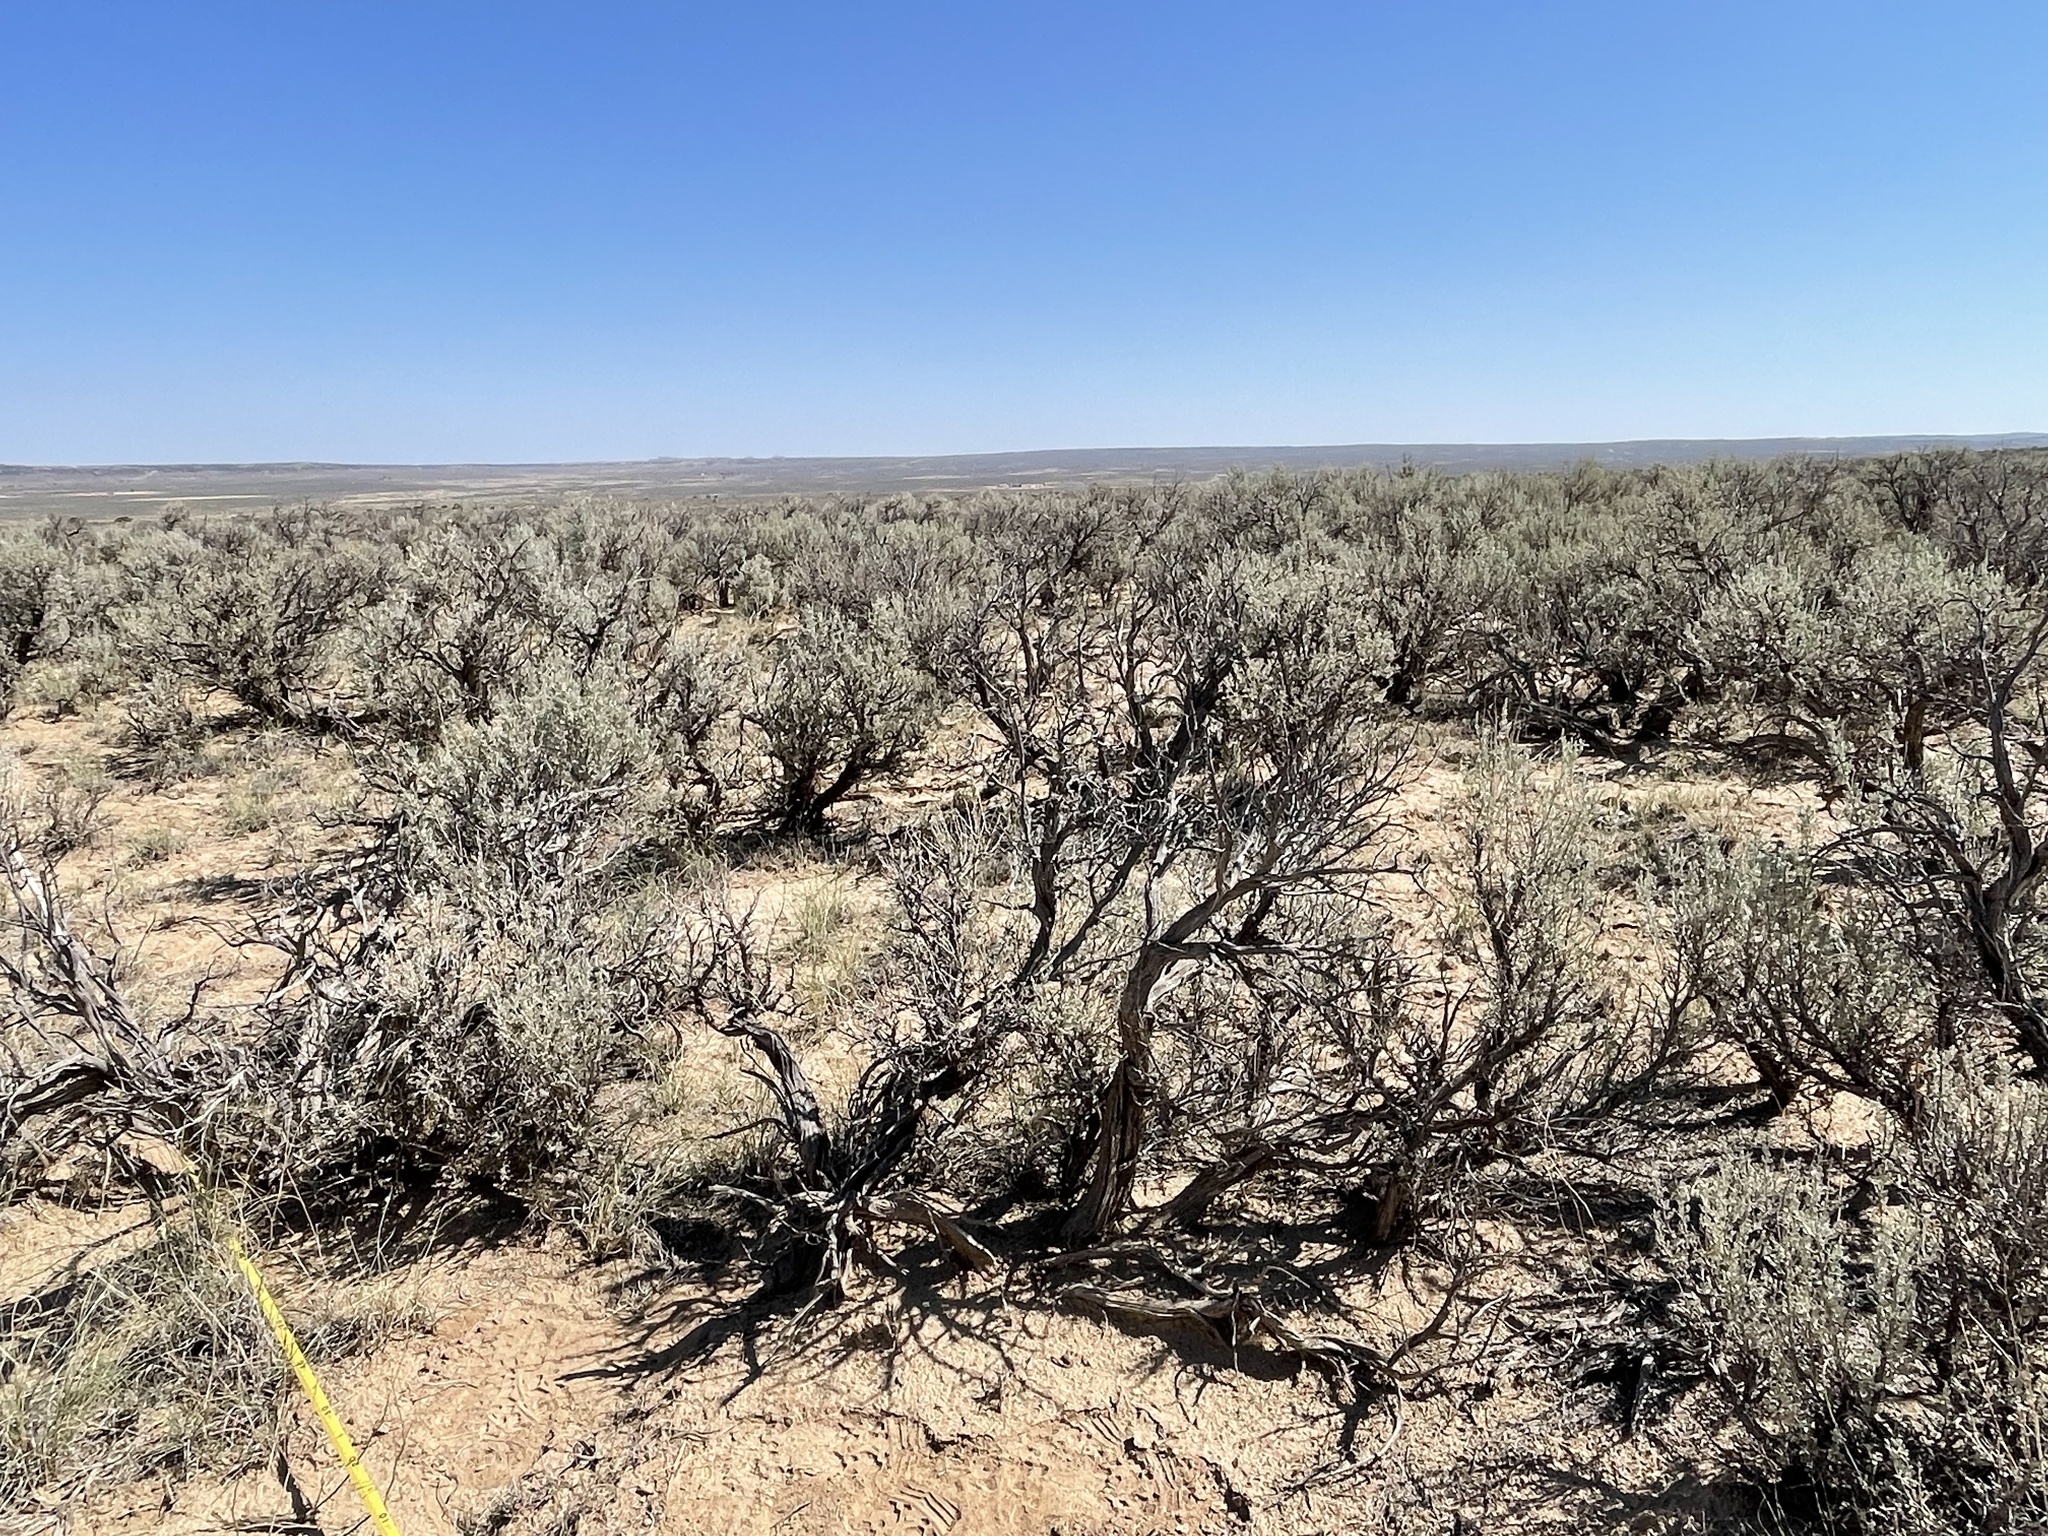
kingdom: Plantae
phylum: Tracheophyta
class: Magnoliopsida
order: Asterales
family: Asteraceae
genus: Artemisia
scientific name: Artemisia tridentata
